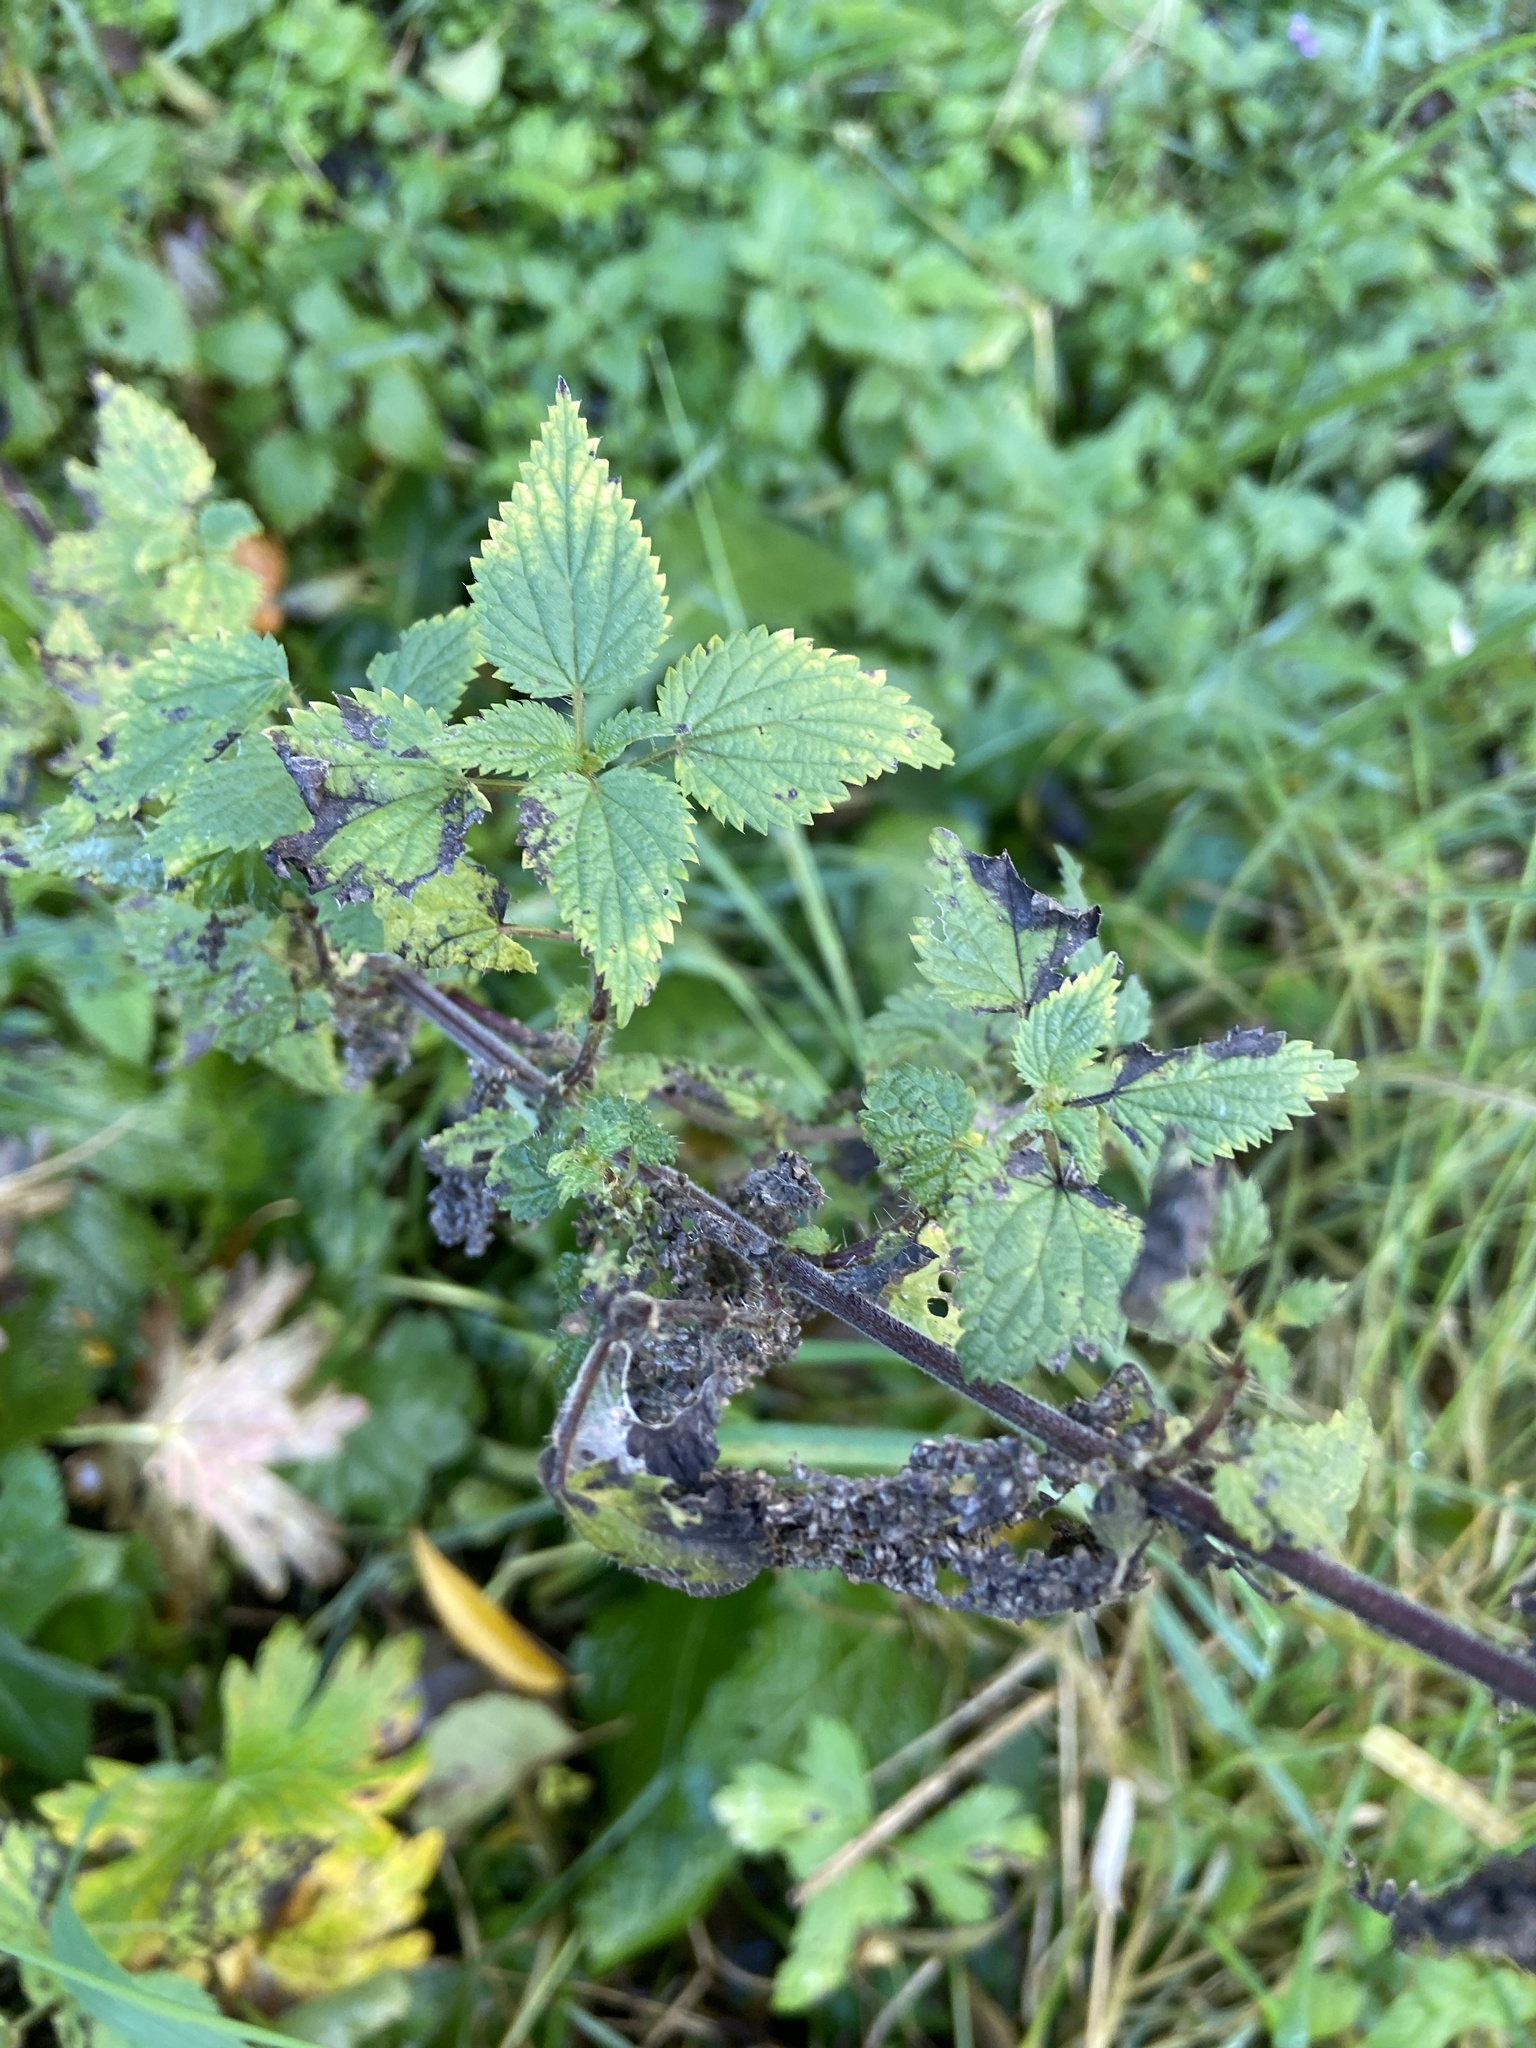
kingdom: Plantae
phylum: Tracheophyta
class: Magnoliopsida
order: Rosales
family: Urticaceae
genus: Urtica
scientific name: Urtica dioica
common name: Common nettle
